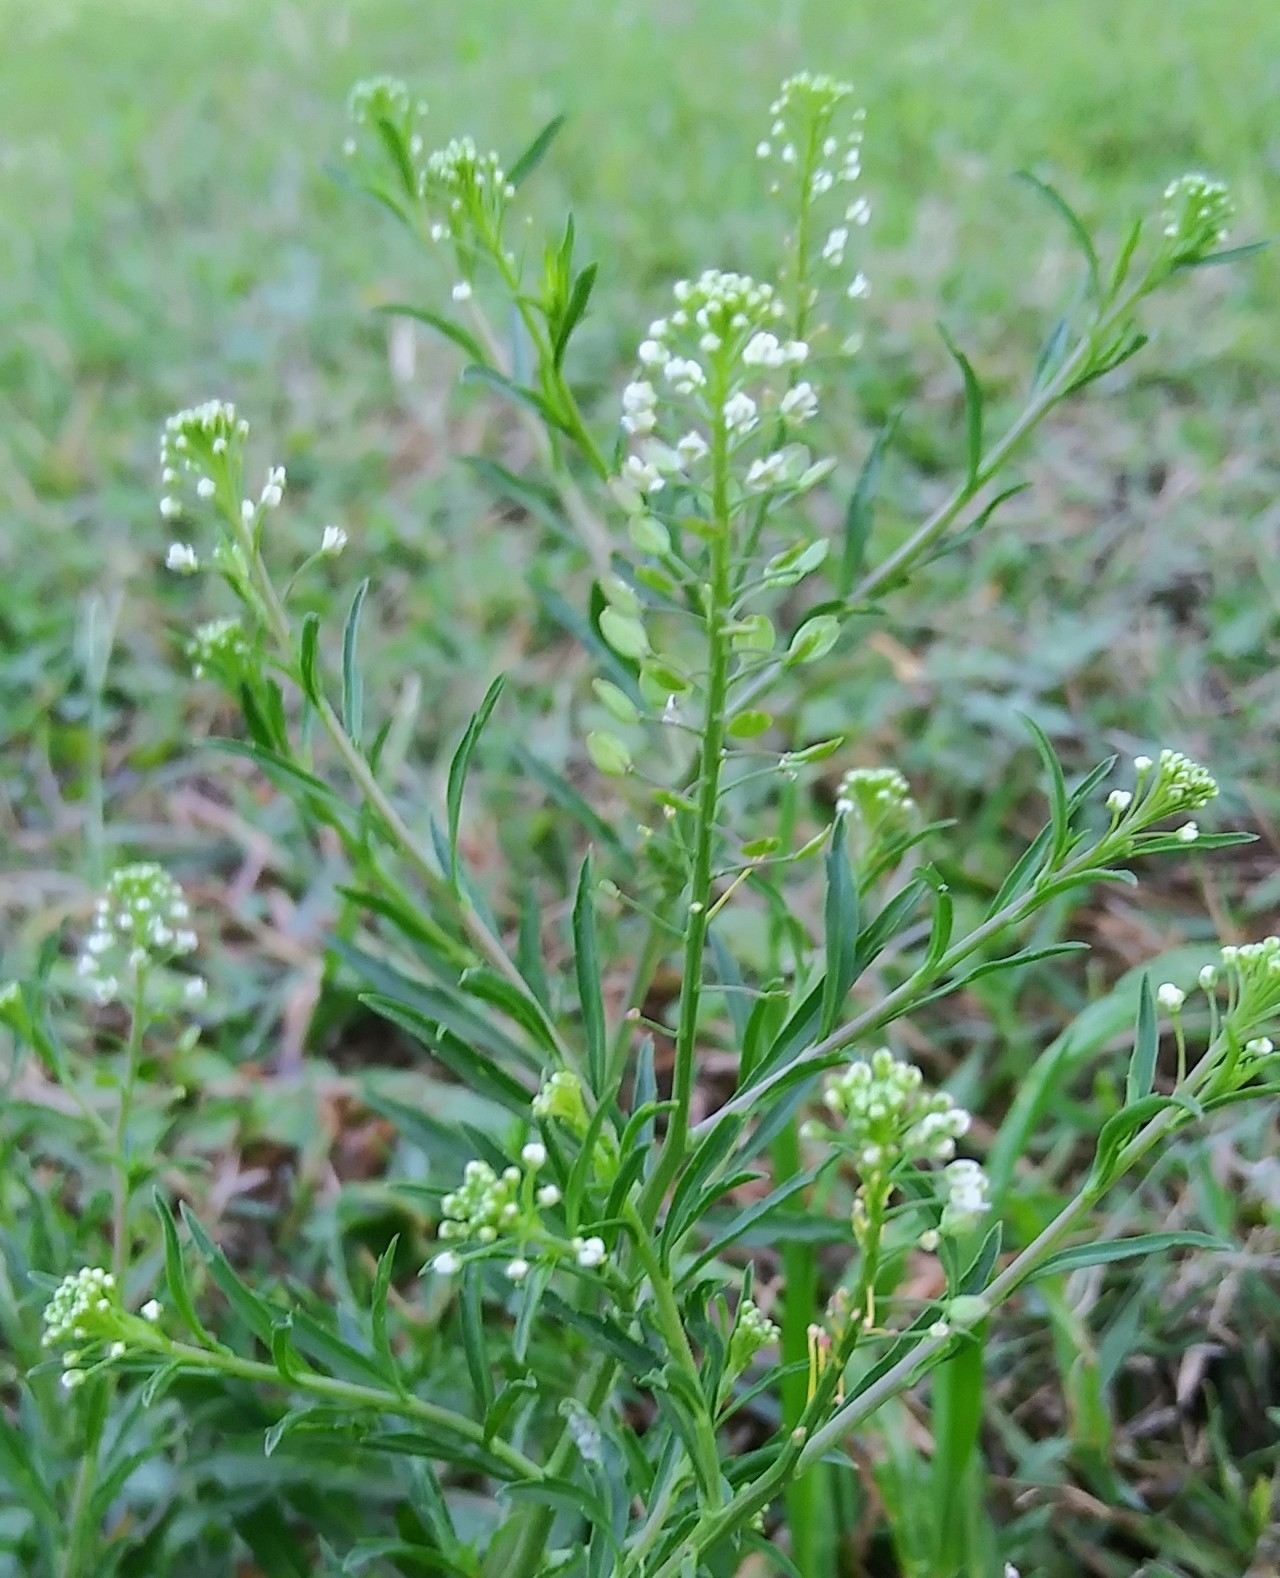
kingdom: Plantae
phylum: Tracheophyta
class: Magnoliopsida
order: Brassicales
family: Brassicaceae
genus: Lepidium
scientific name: Lepidium virginicum
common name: Least pepperwort
